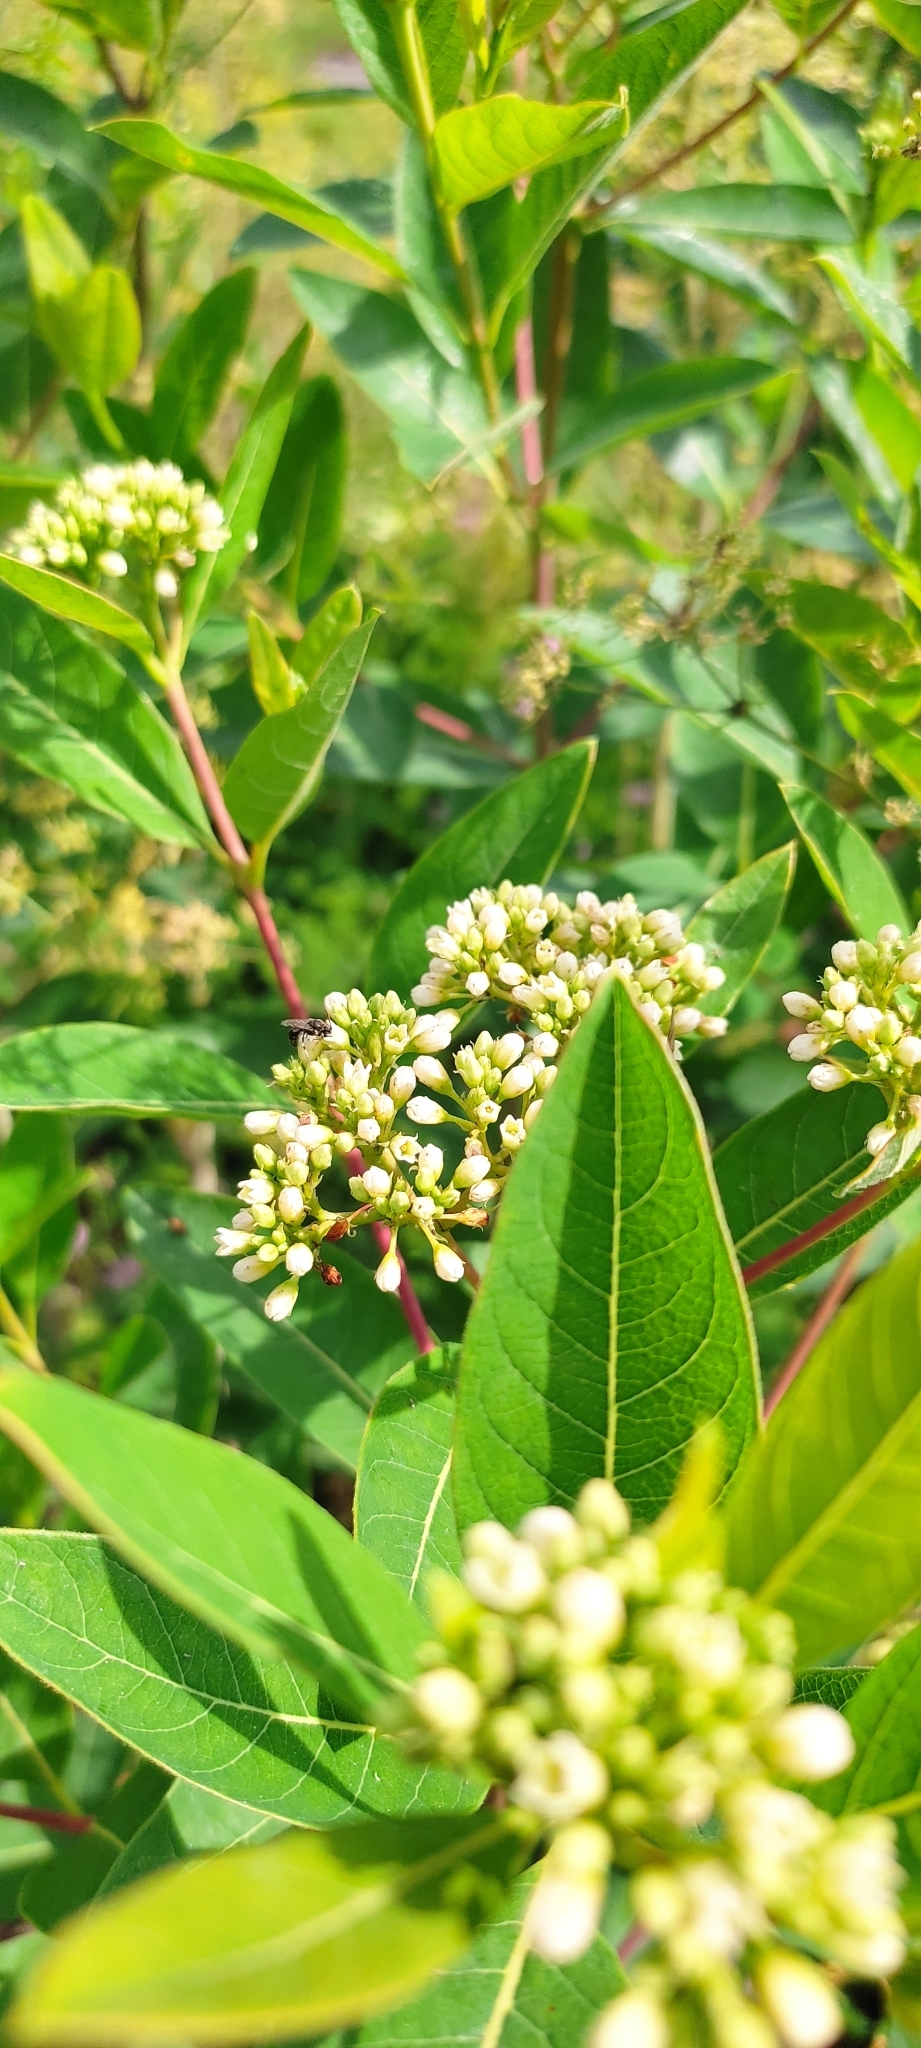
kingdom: Plantae
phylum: Tracheophyta
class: Magnoliopsida
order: Gentianales
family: Apocynaceae
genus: Apocynum
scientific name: Apocynum cannabinum
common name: Hemp dogbane
